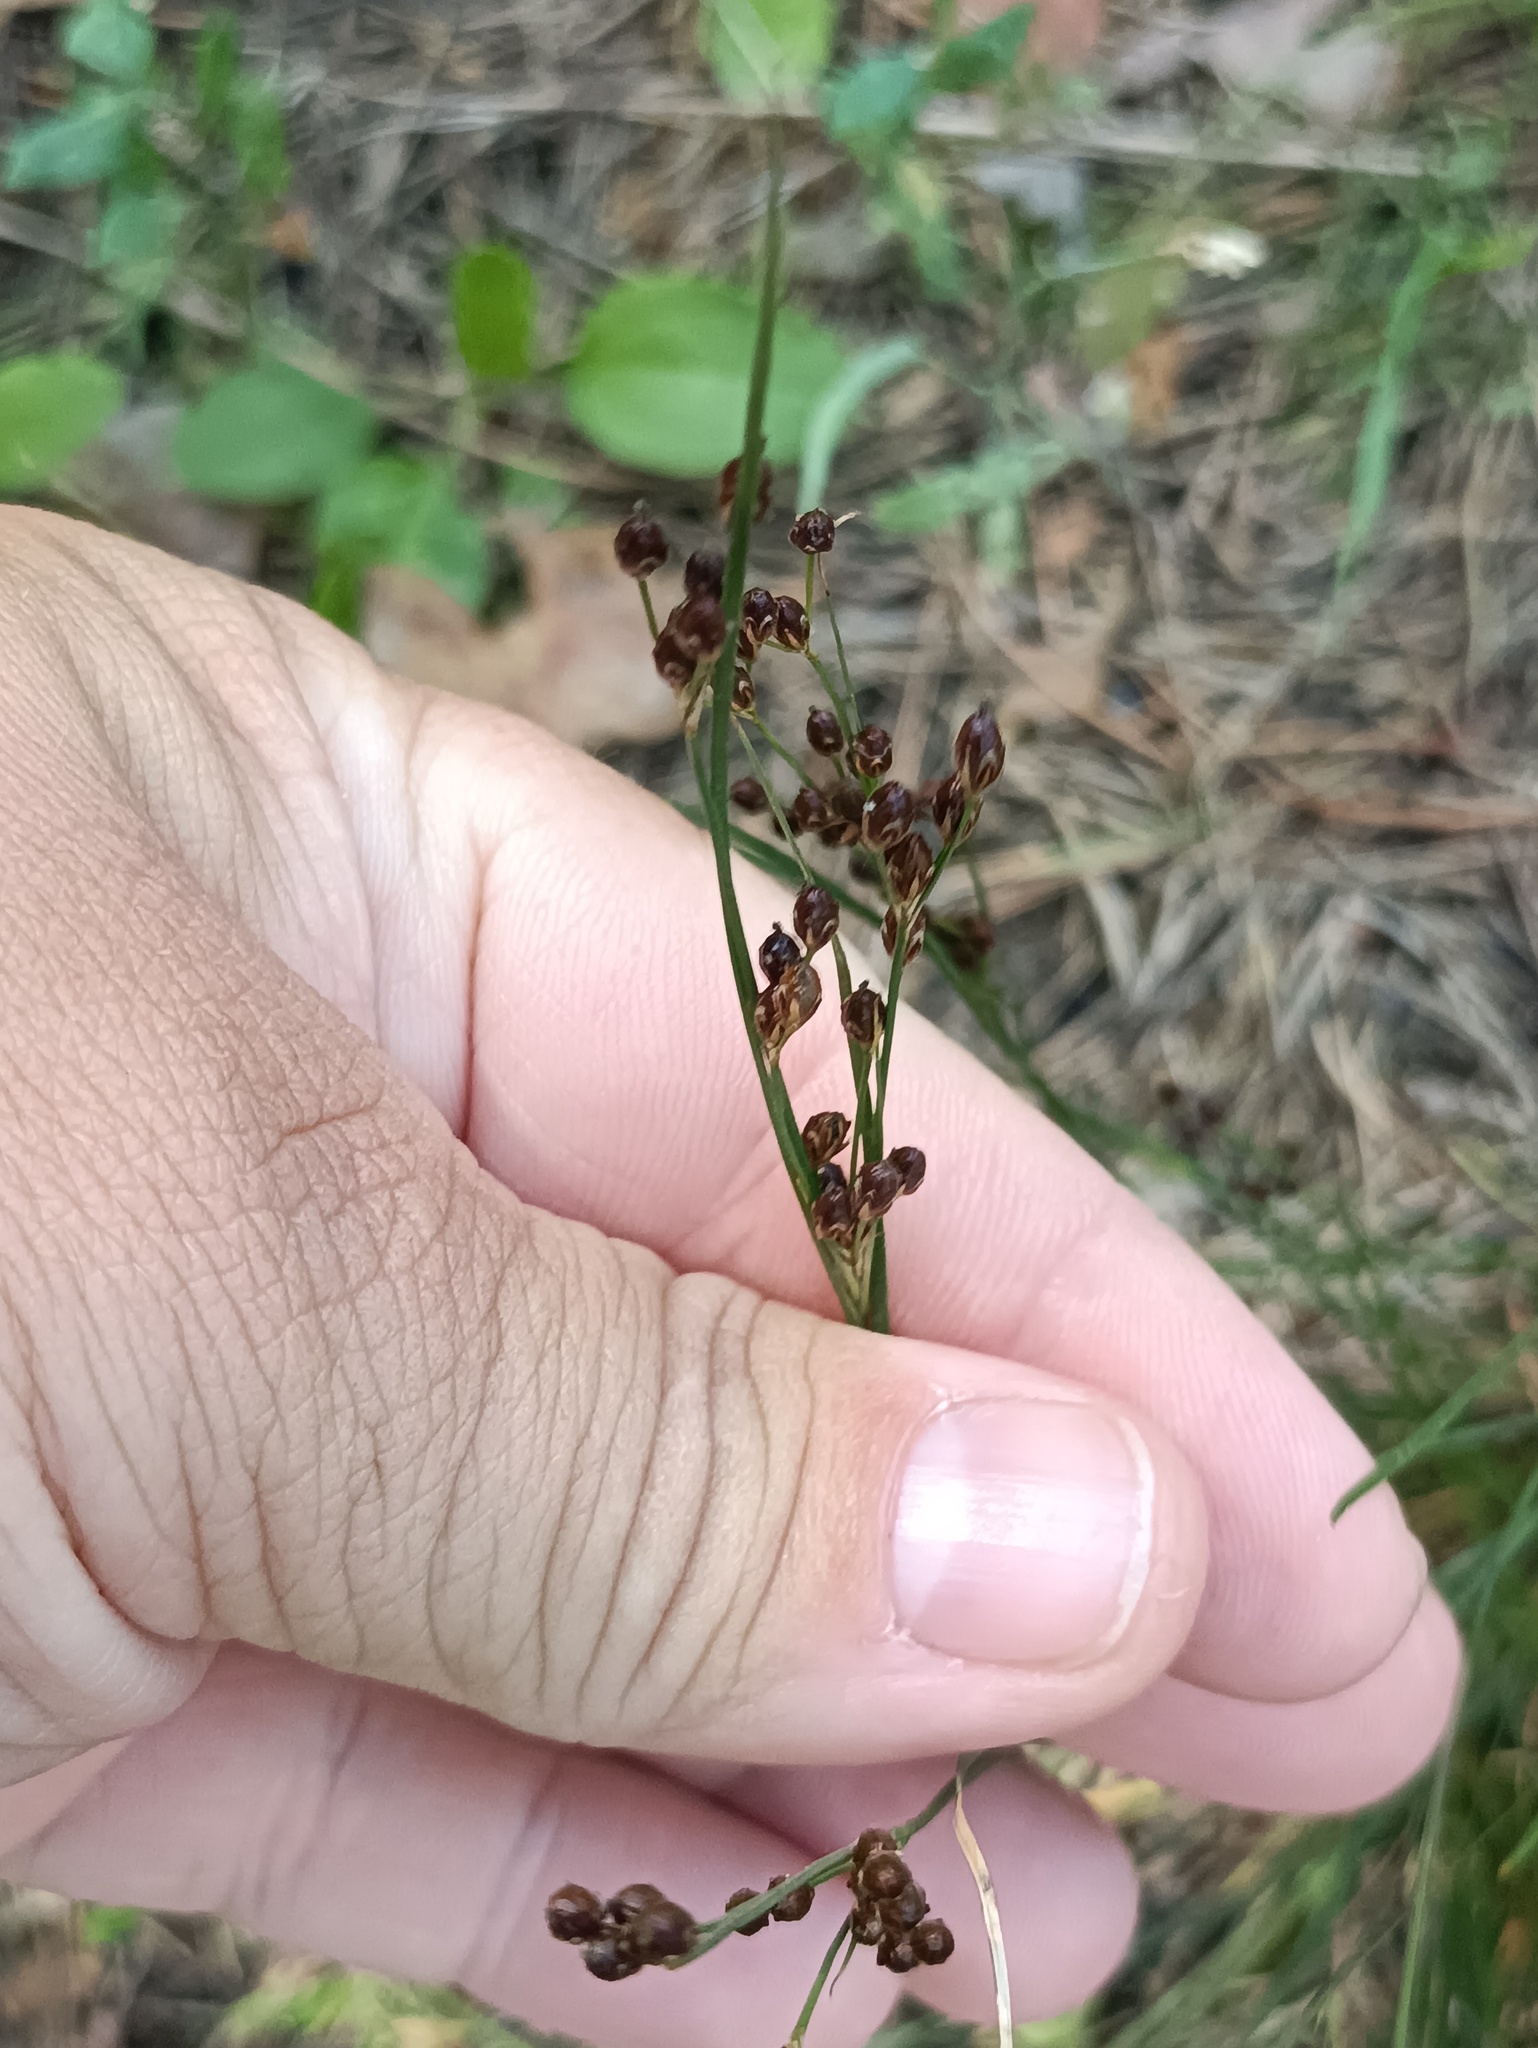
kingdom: Plantae
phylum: Tracheophyta
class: Liliopsida
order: Poales
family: Juncaceae
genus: Juncus
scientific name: Juncus compressus
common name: Round-fruited rush
